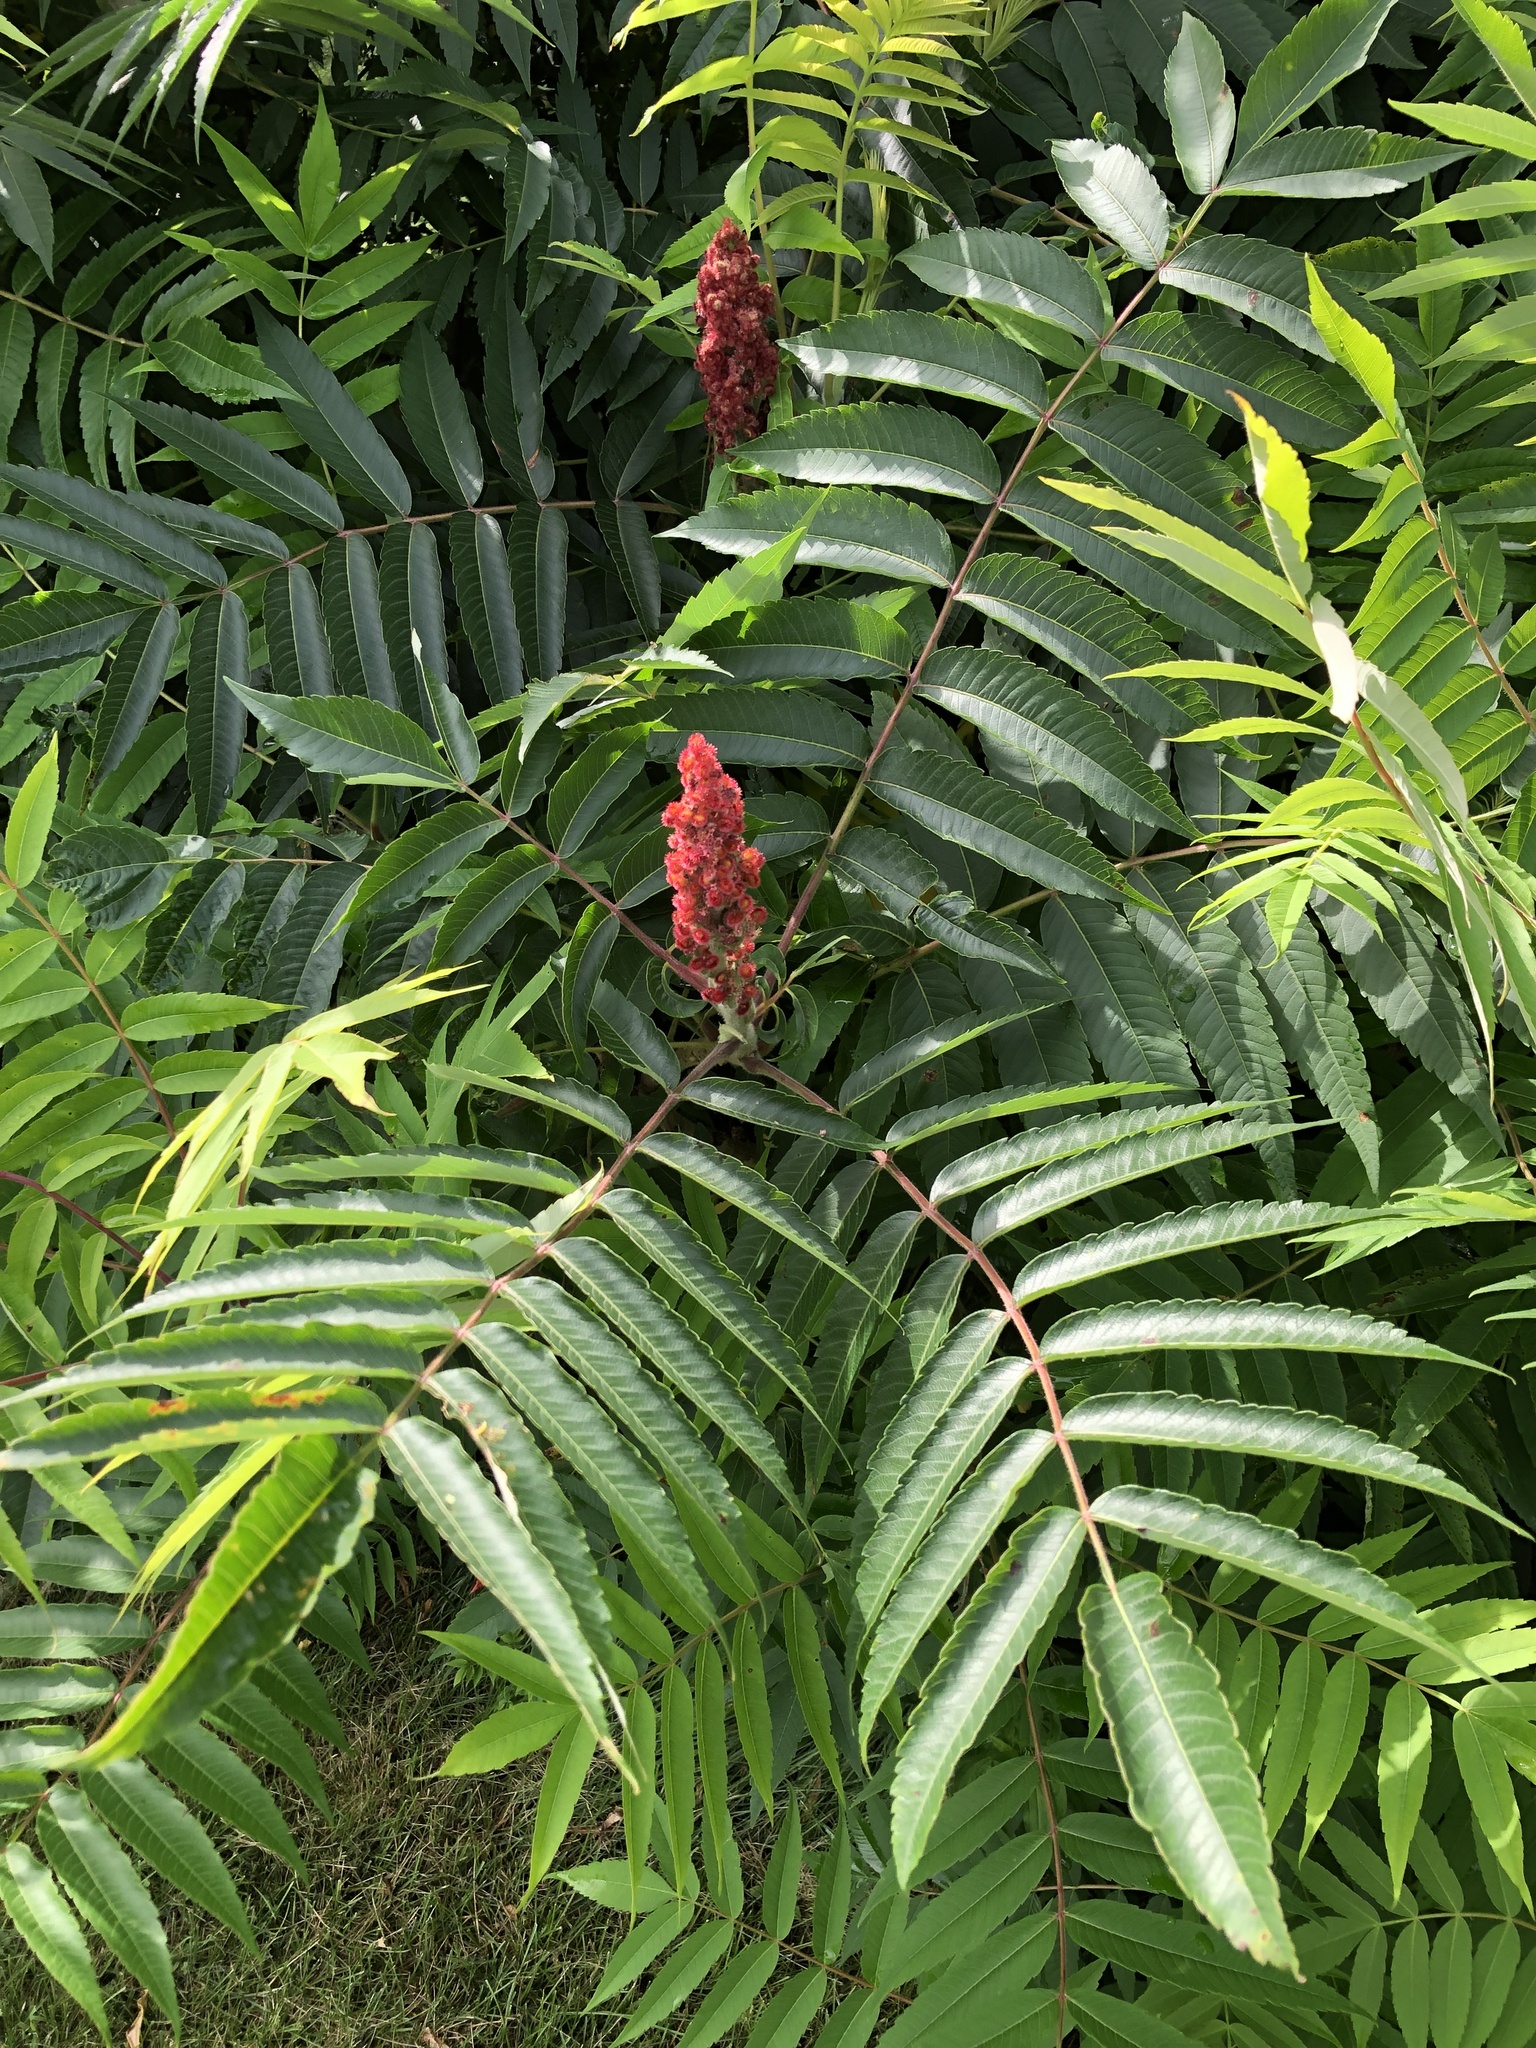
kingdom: Plantae
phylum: Tracheophyta
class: Magnoliopsida
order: Sapindales
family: Anacardiaceae
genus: Rhus
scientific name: Rhus typhina
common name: Staghorn sumac
